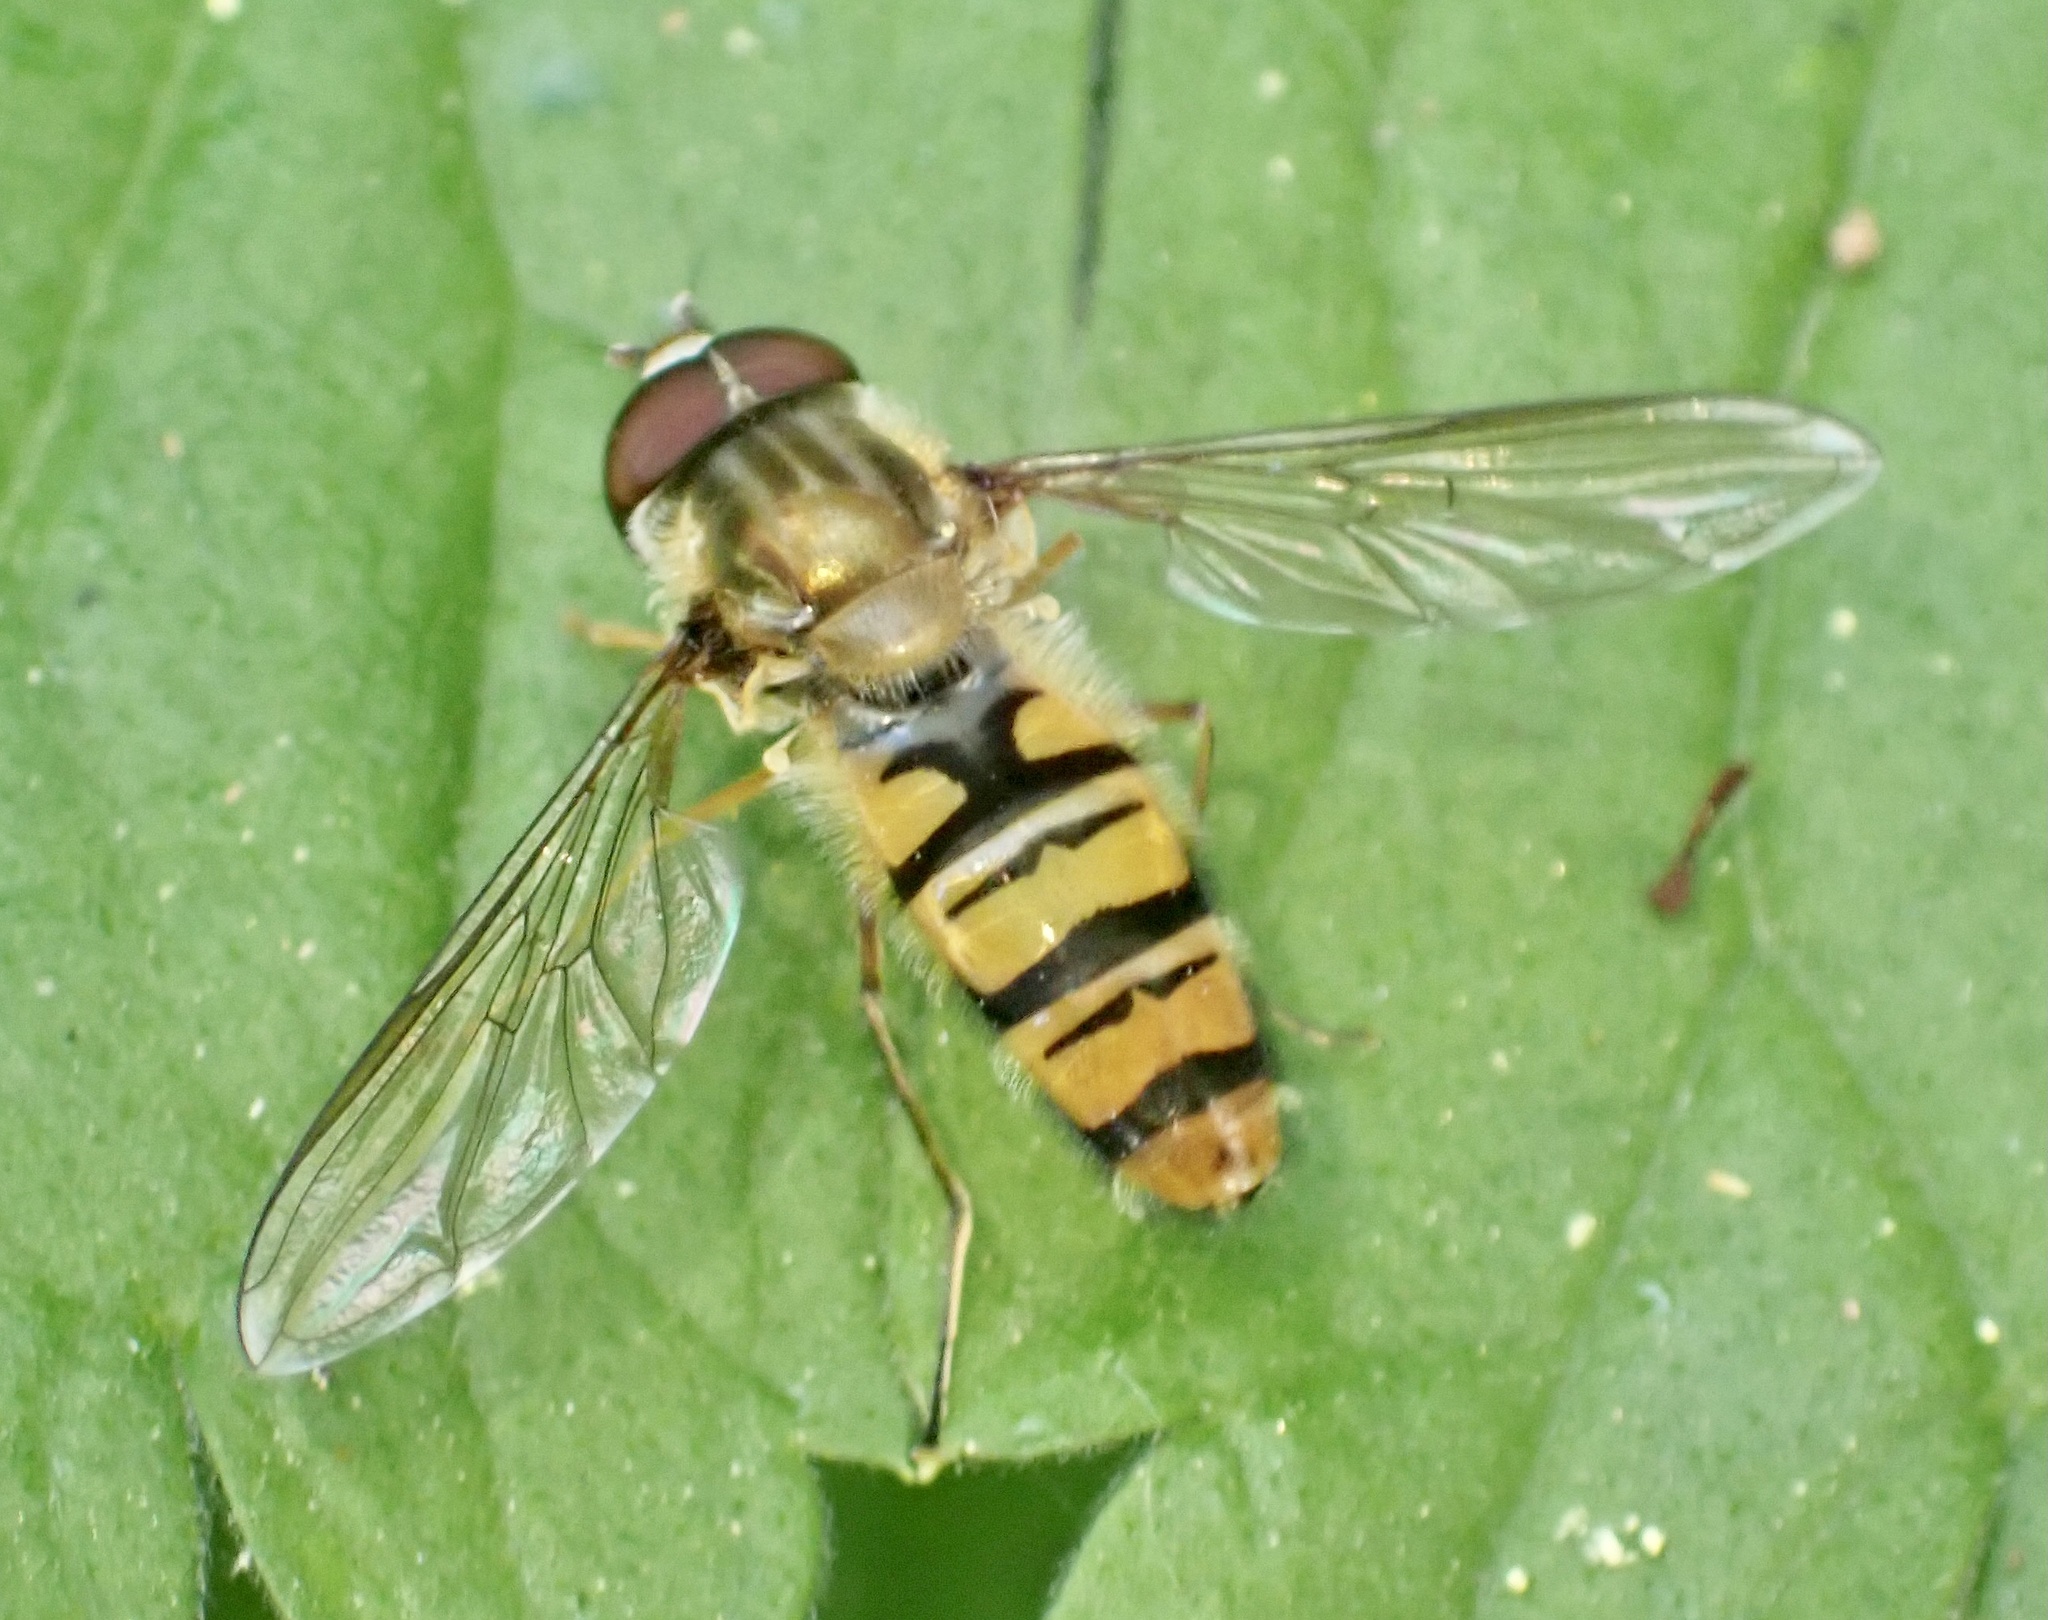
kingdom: Animalia
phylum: Arthropoda
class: Insecta
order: Diptera
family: Syrphidae
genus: Episyrphus
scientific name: Episyrphus balteatus
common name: Marmalade hoverfly
